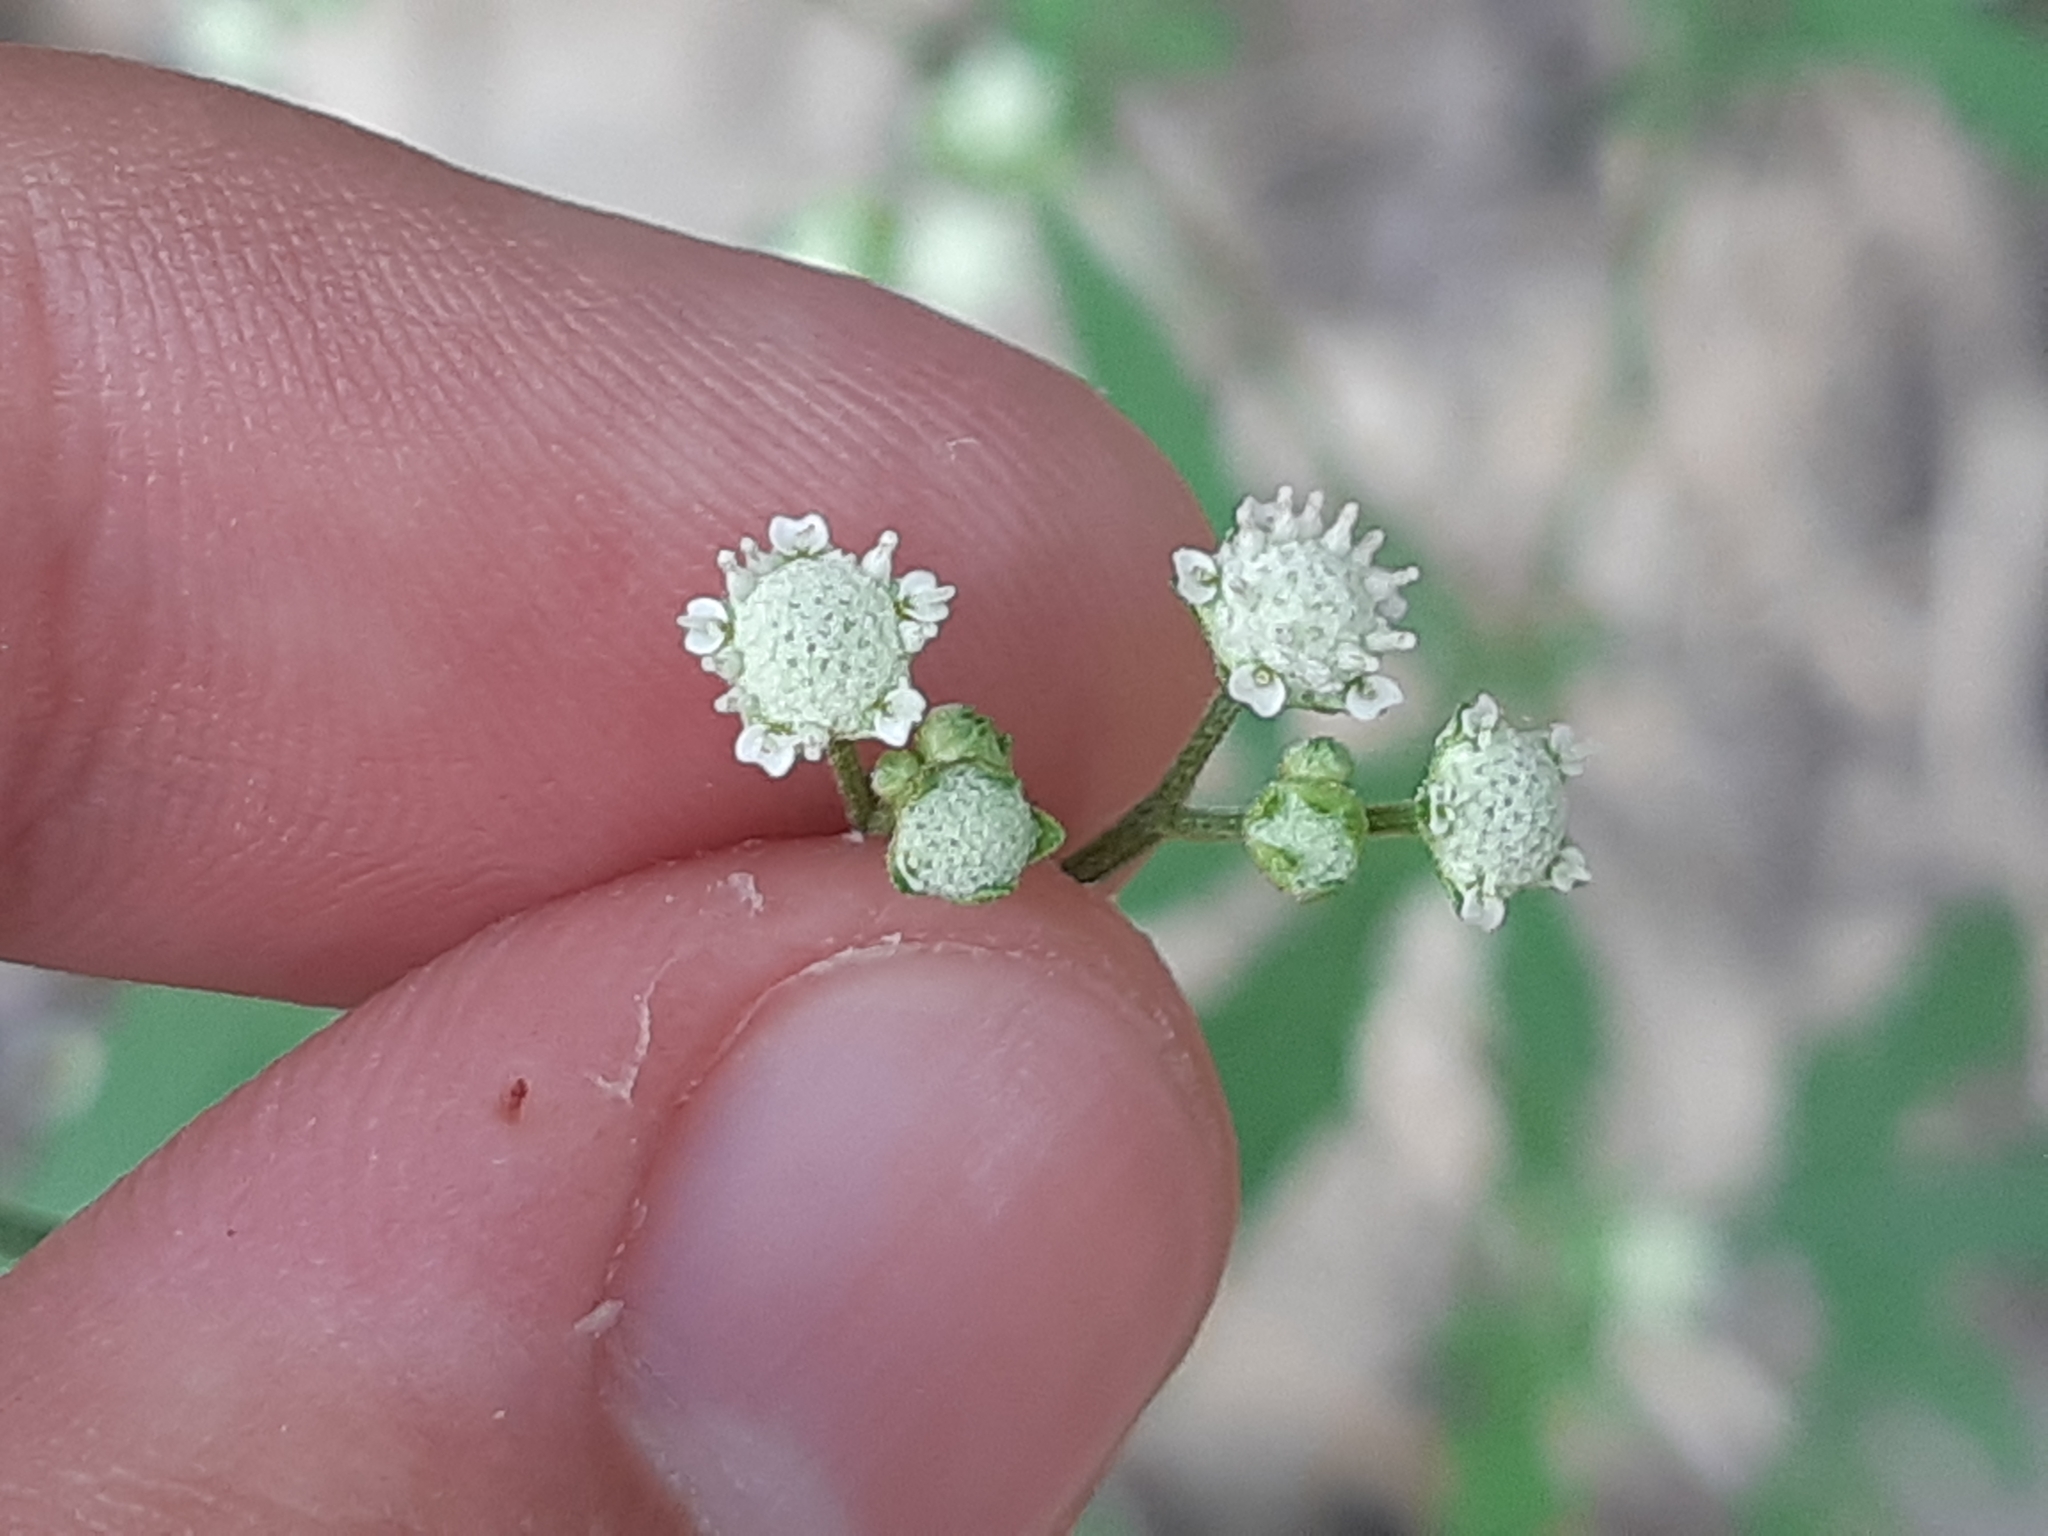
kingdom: Plantae
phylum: Tracheophyta
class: Magnoliopsida
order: Asterales
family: Asteraceae
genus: Parthenium
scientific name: Parthenium hysterophorus
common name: Santa maria feverfew
